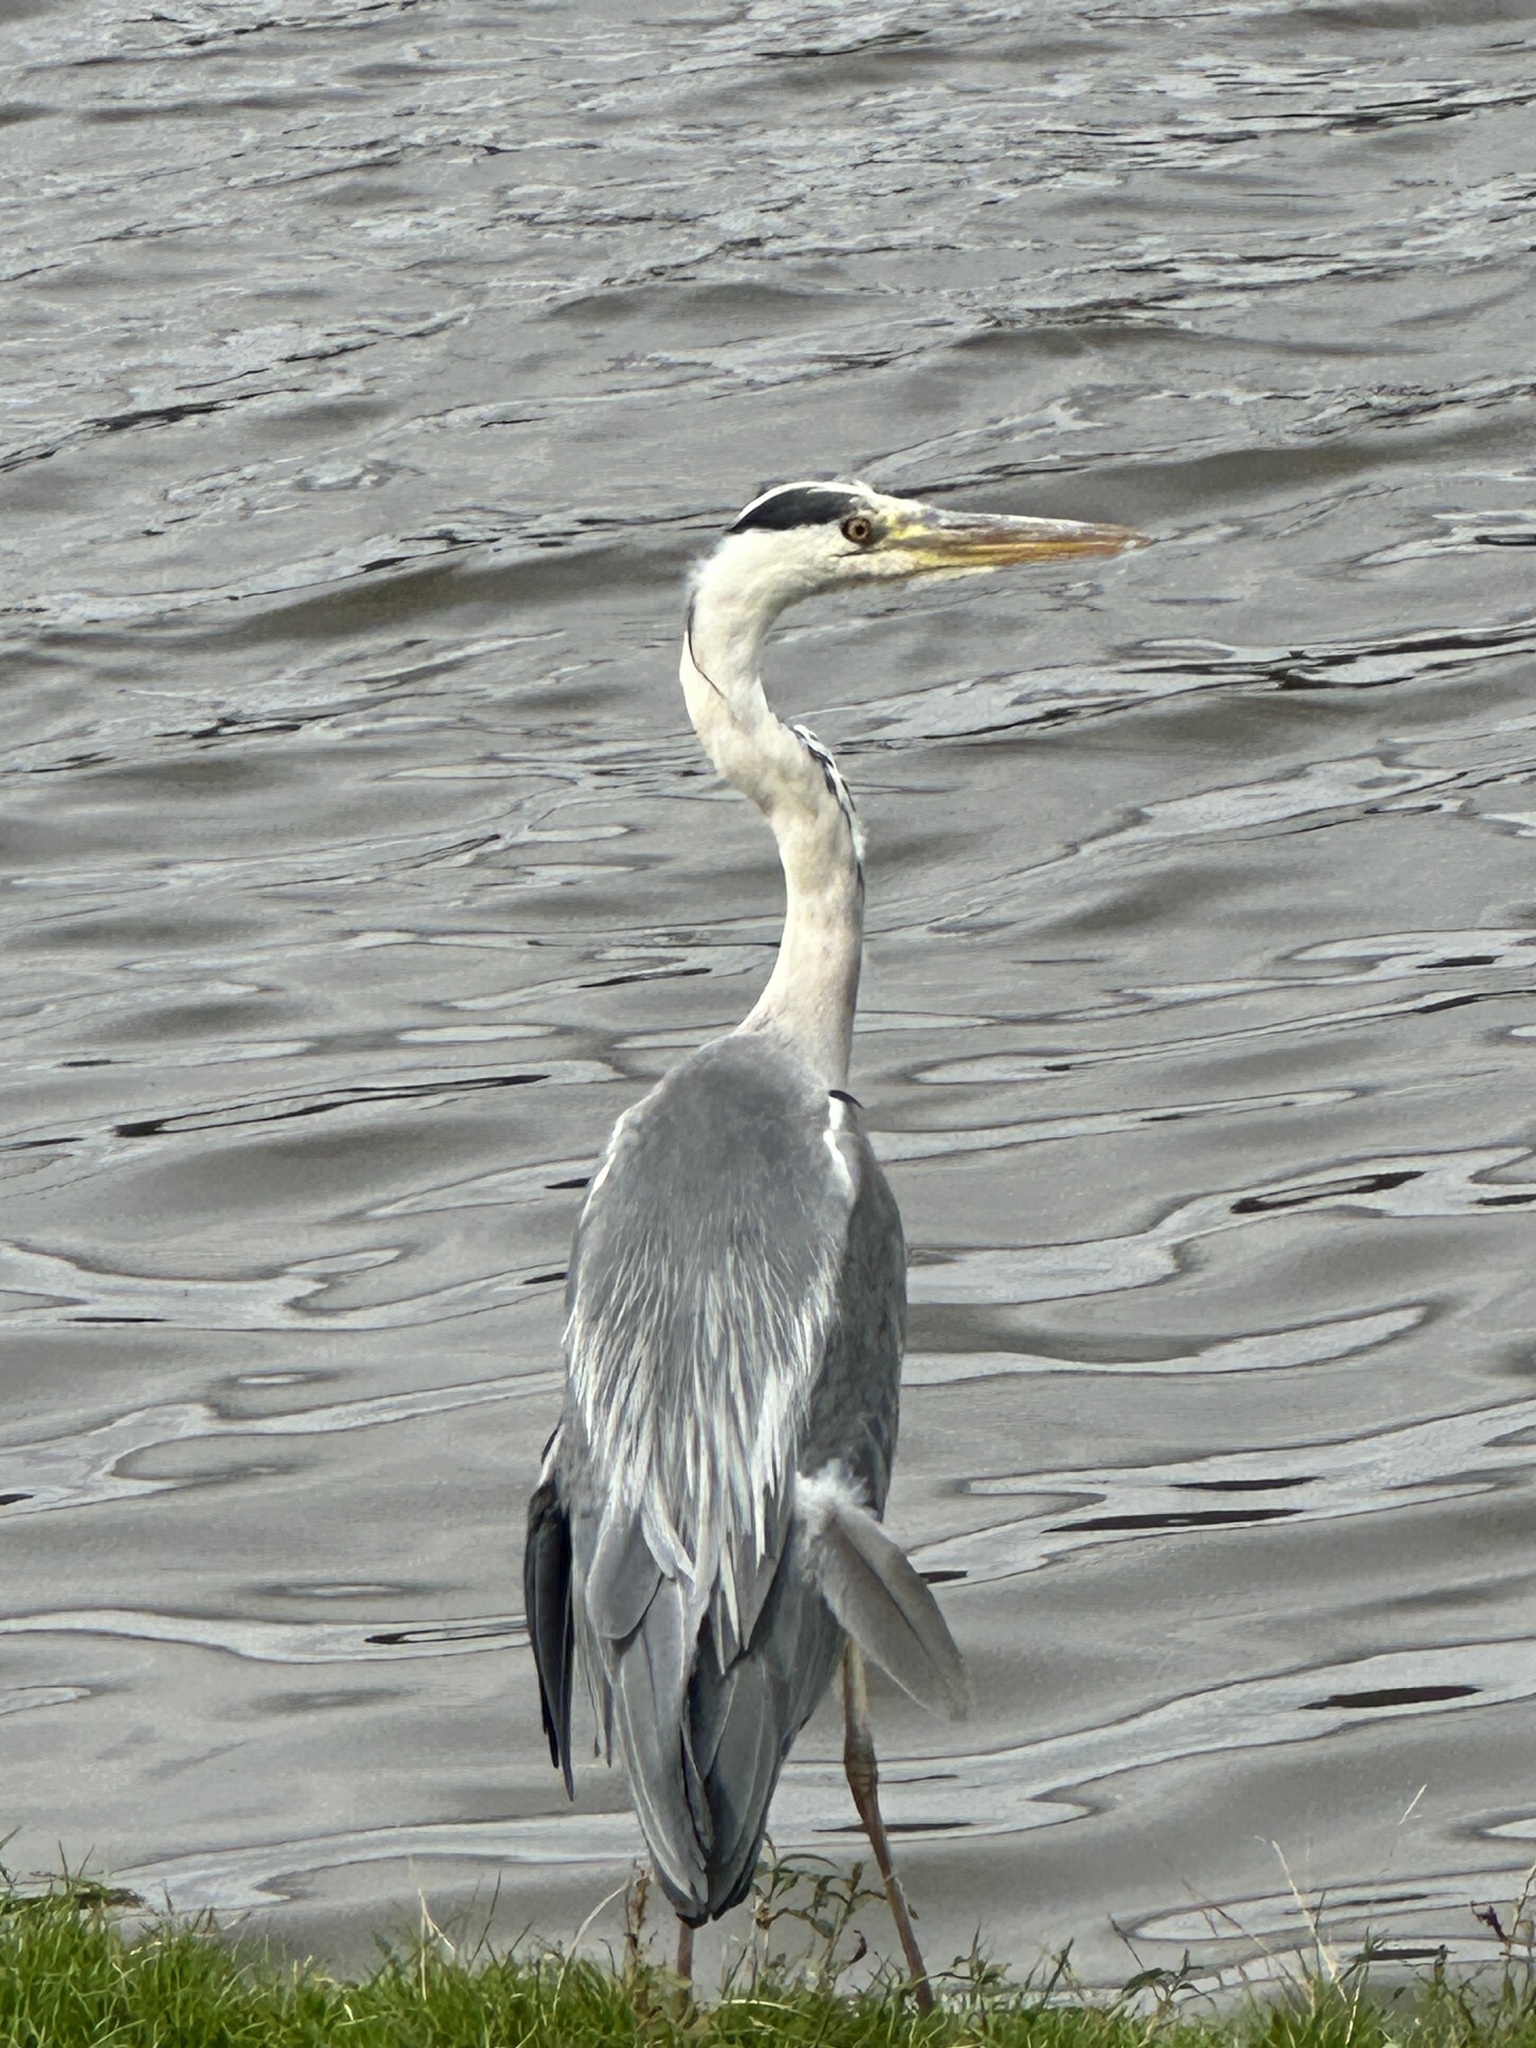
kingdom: Animalia
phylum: Chordata
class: Aves
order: Pelecaniformes
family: Ardeidae
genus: Ardea
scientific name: Ardea cinerea
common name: Grey heron
